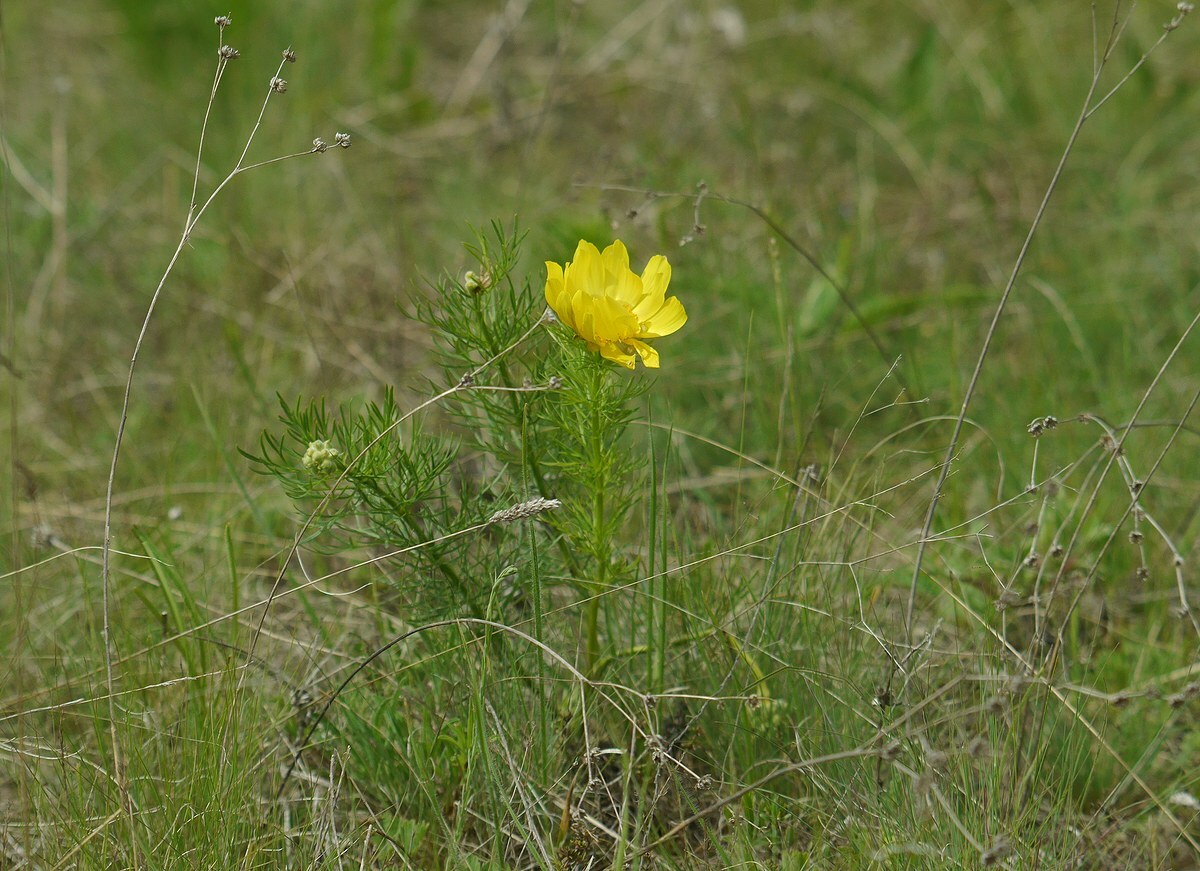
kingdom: Plantae
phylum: Tracheophyta
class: Magnoliopsida
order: Ranunculales
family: Ranunculaceae
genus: Adonis
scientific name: Adonis vernalis
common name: Yellow pheasants-eye
